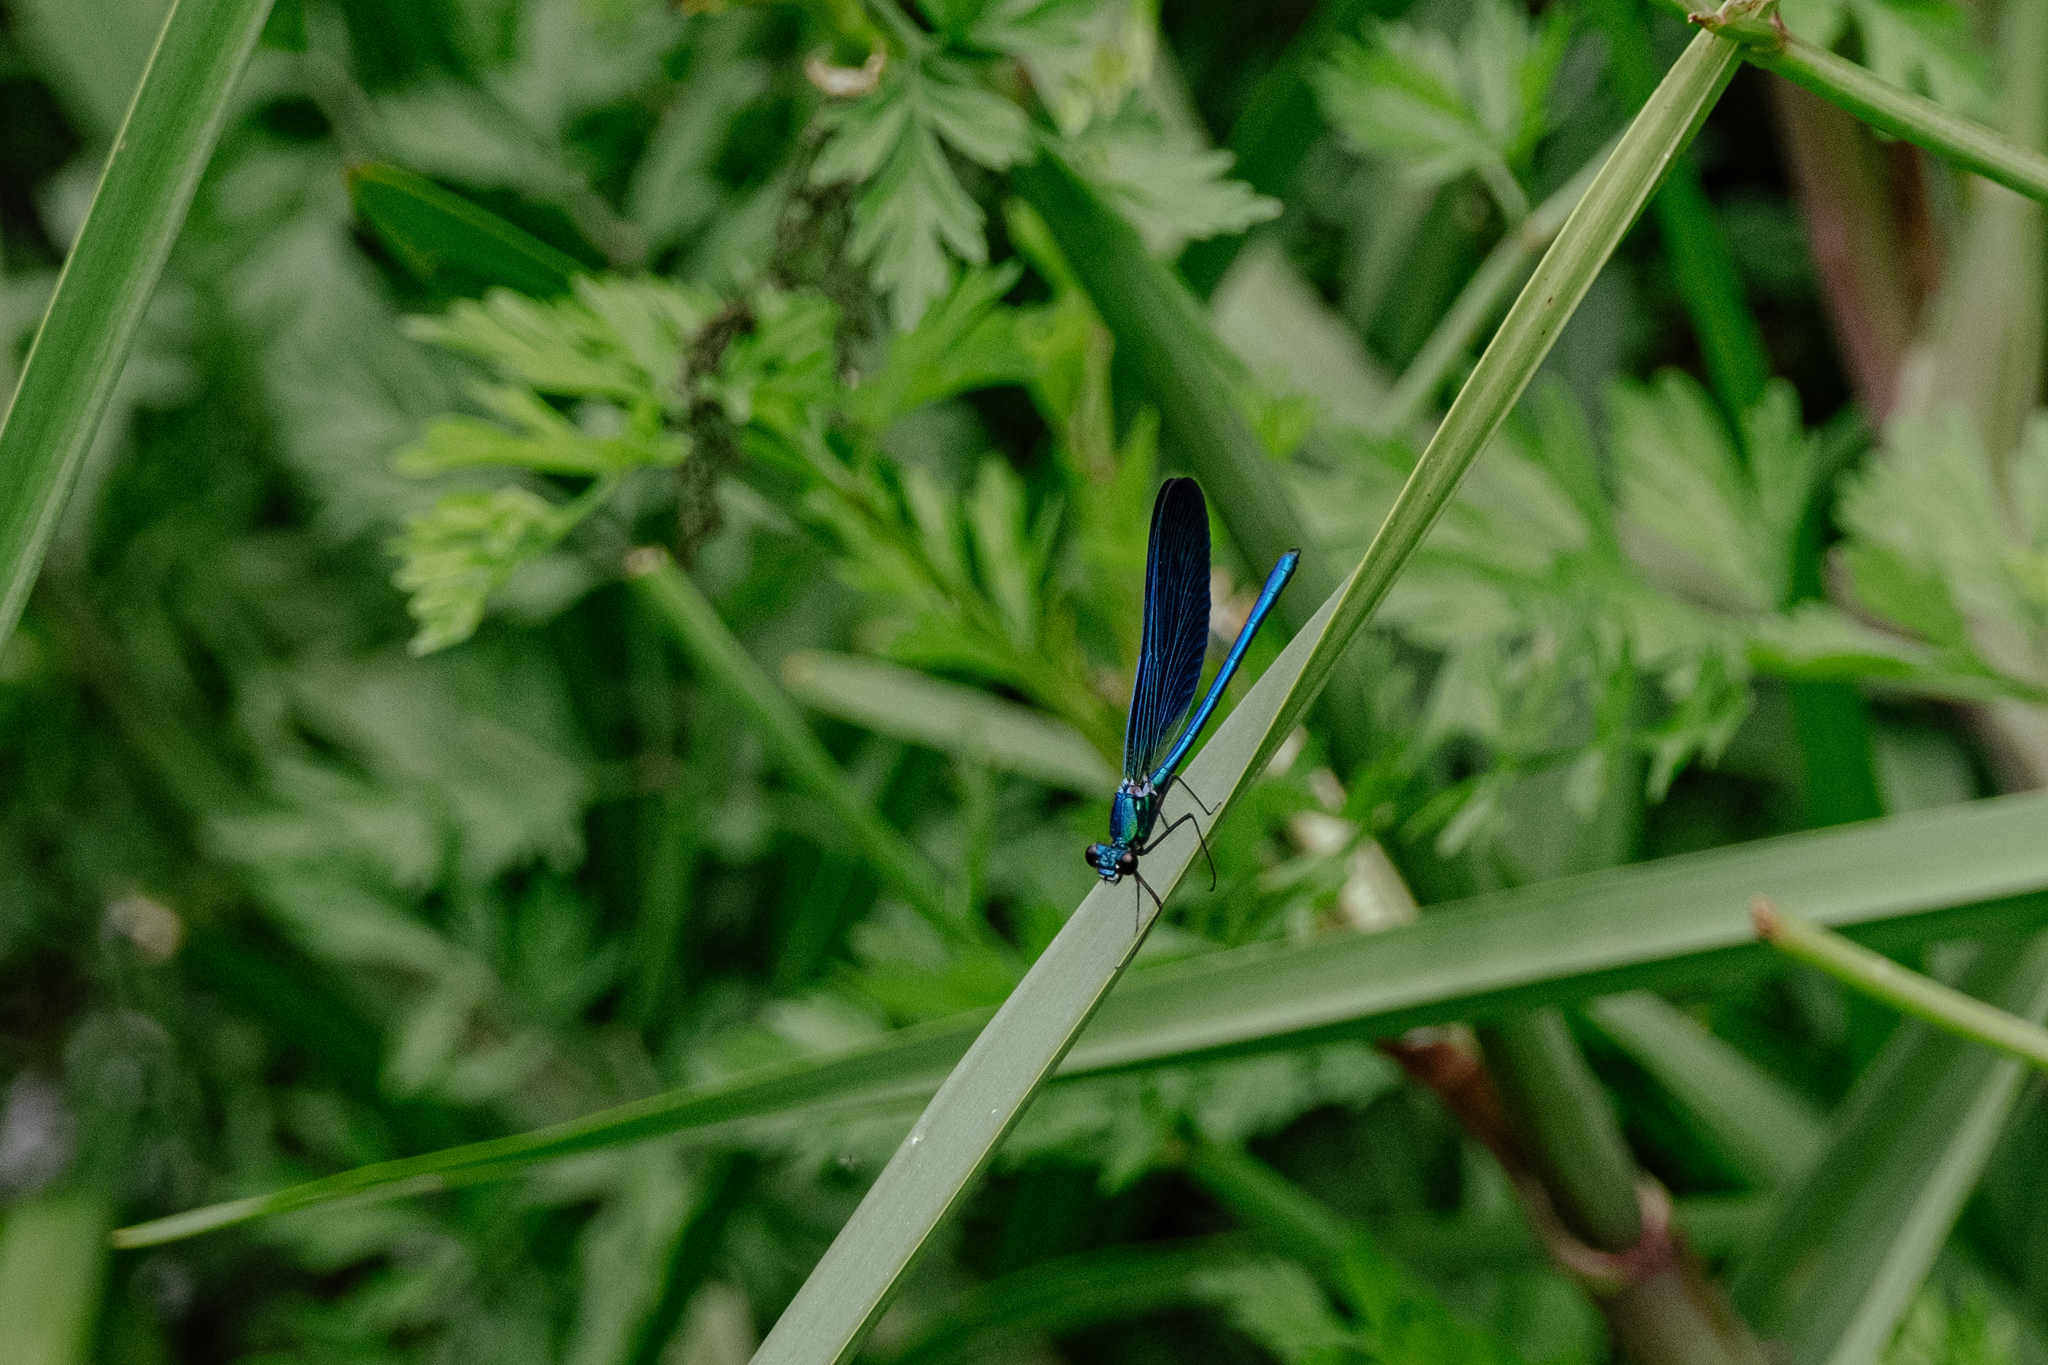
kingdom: Animalia
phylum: Arthropoda
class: Insecta
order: Odonata
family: Calopterygidae
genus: Calopteryx
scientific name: Calopteryx virgo
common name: Beautiful demoiselle
